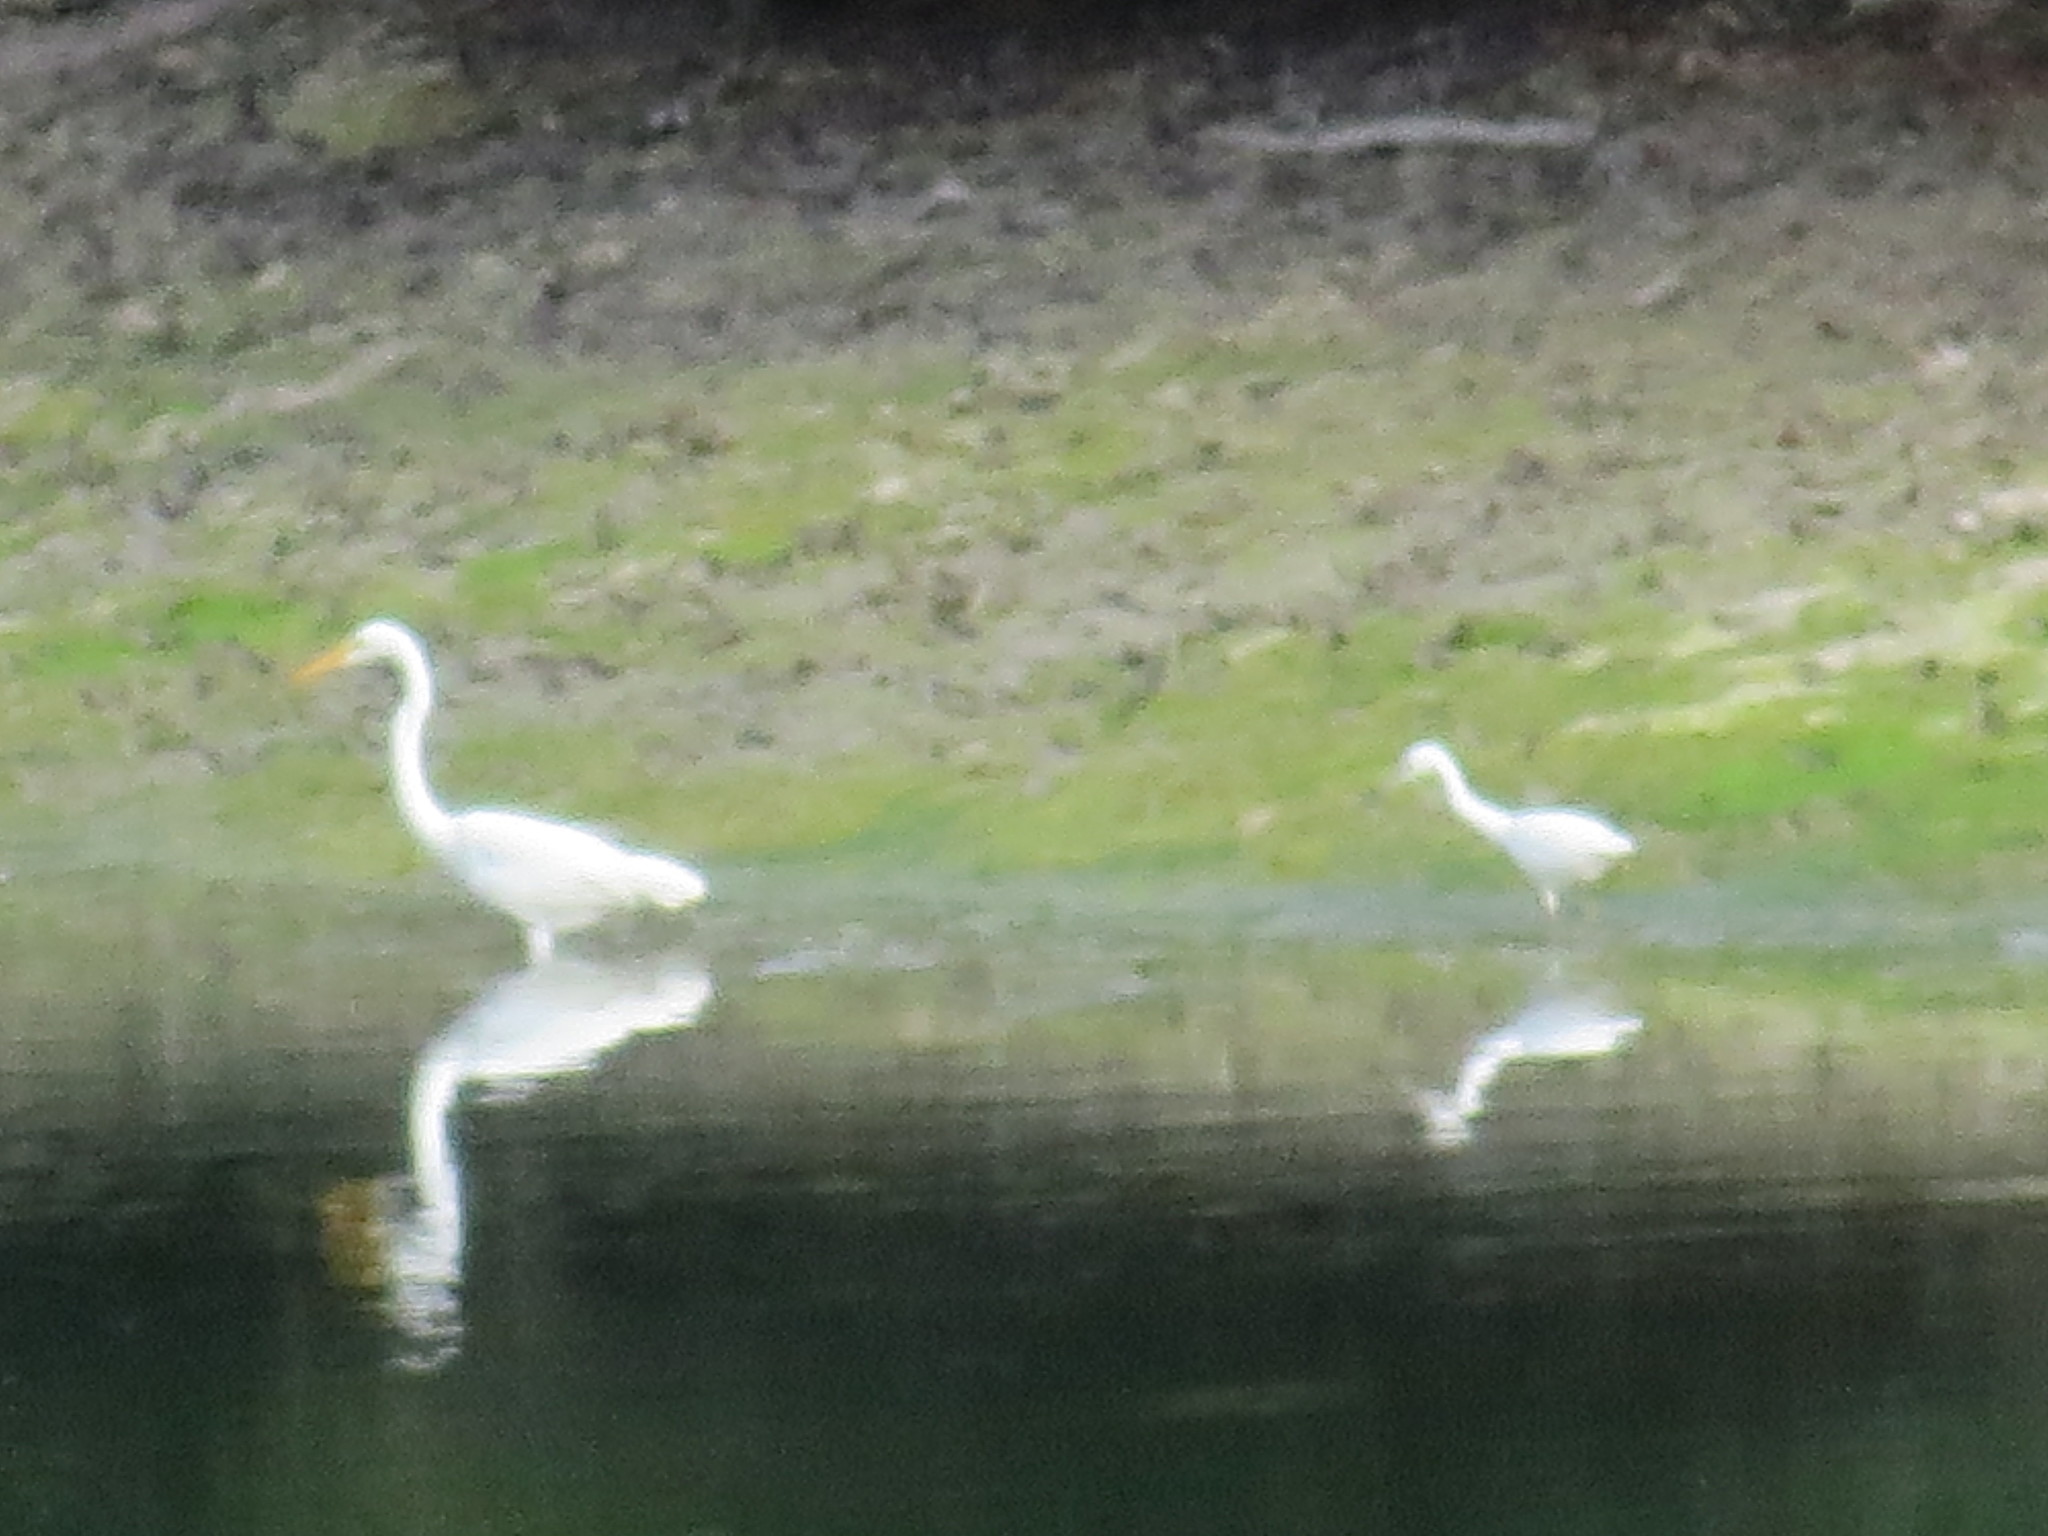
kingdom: Animalia
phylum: Chordata
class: Aves
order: Pelecaniformes
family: Ardeidae
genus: Ardea
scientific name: Ardea alba
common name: Great egret
